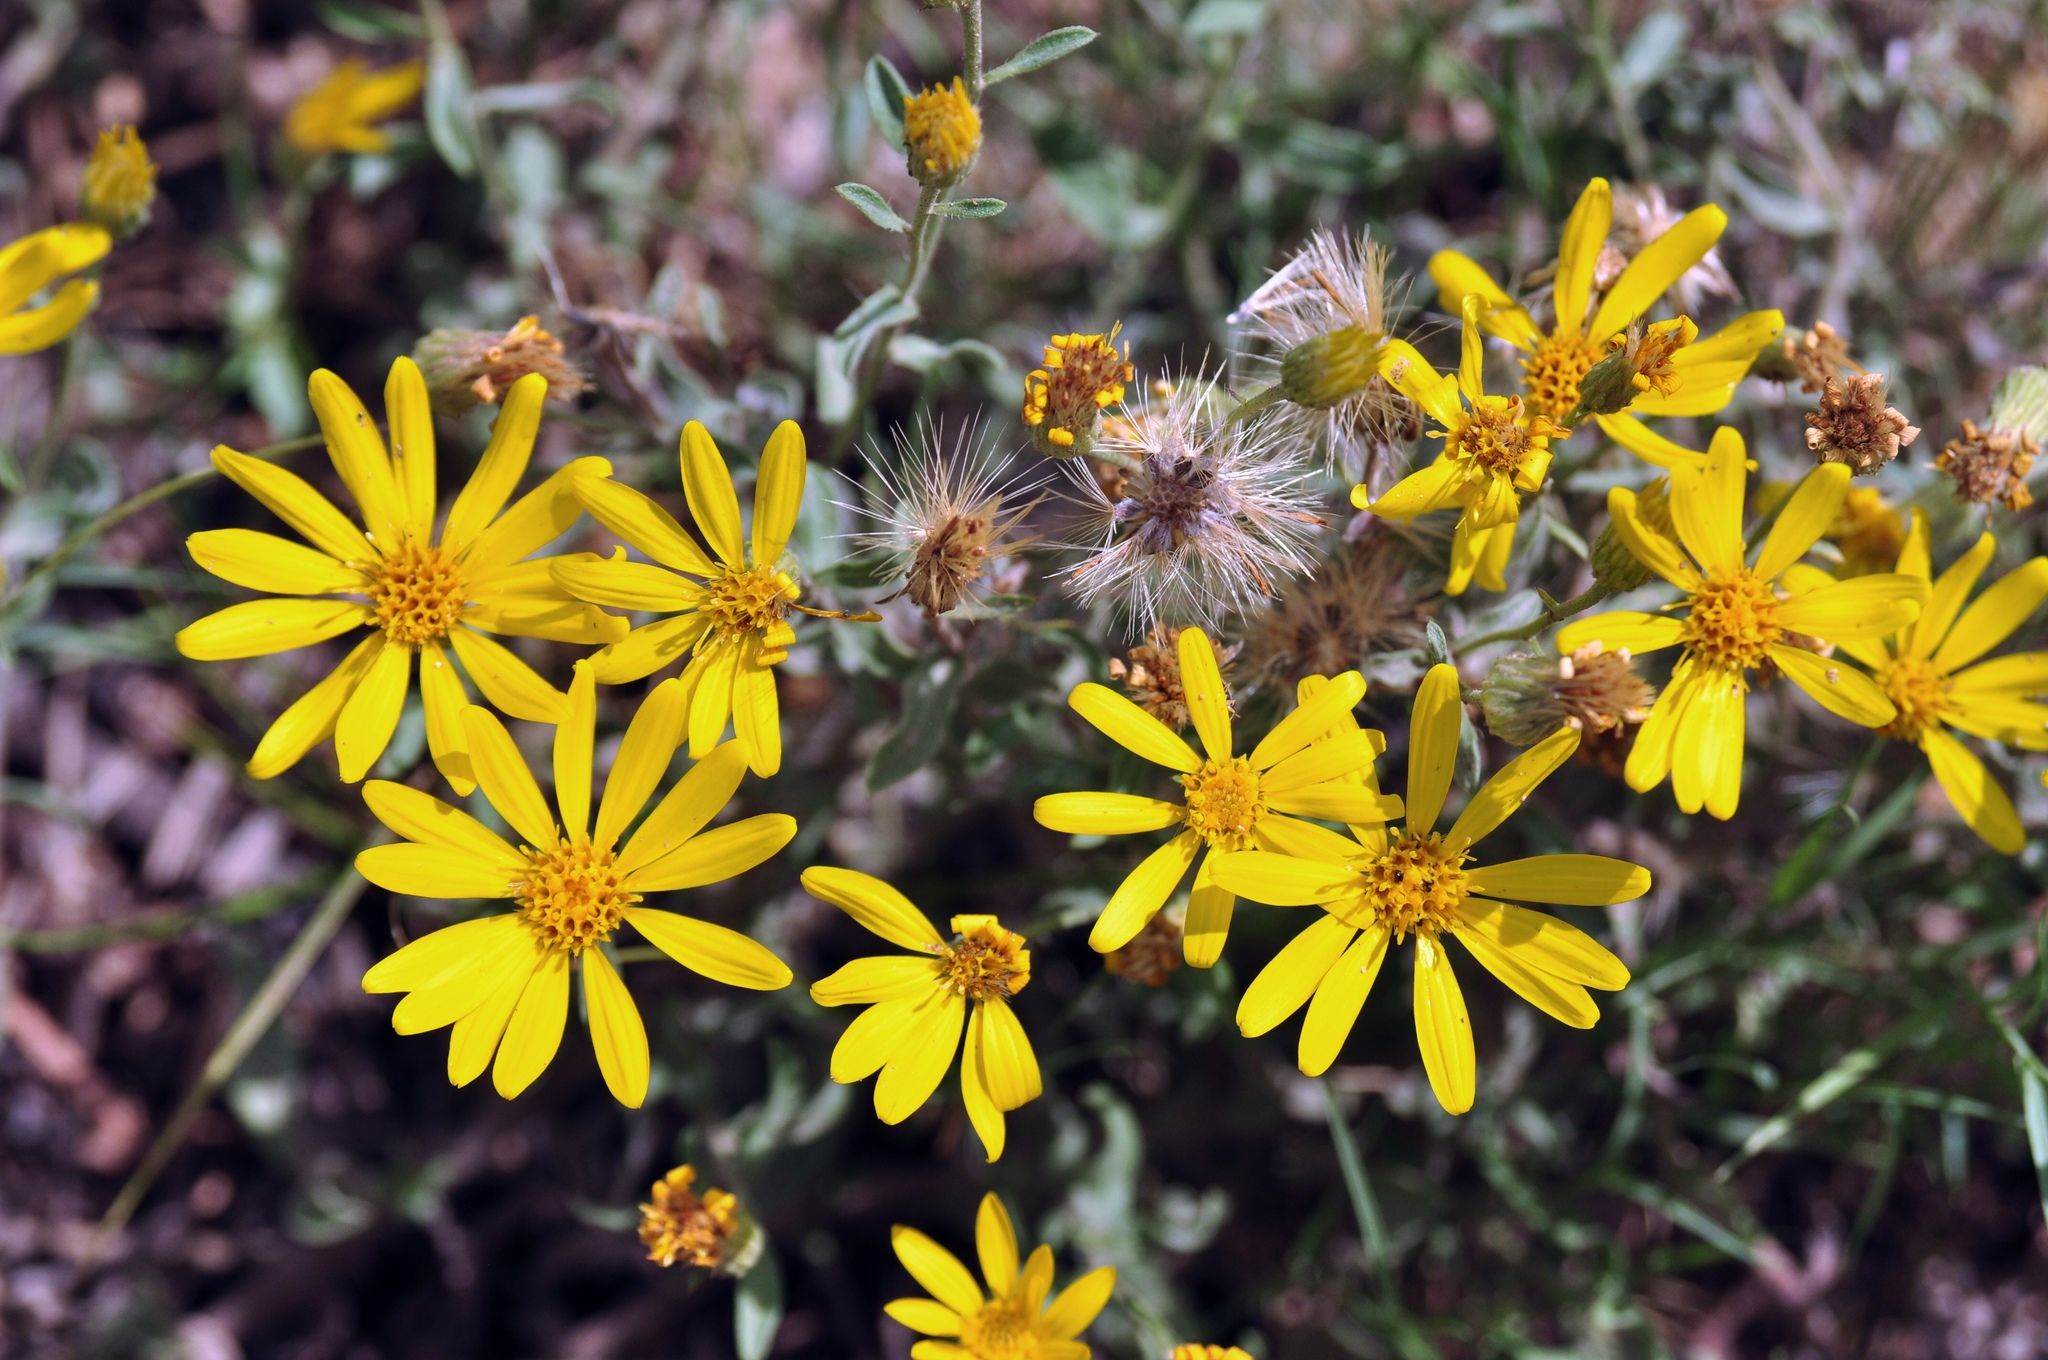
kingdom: Plantae
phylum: Tracheophyta
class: Magnoliopsida
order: Asterales
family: Asteraceae
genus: Heterotheca
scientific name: Heterotheca polothrix
